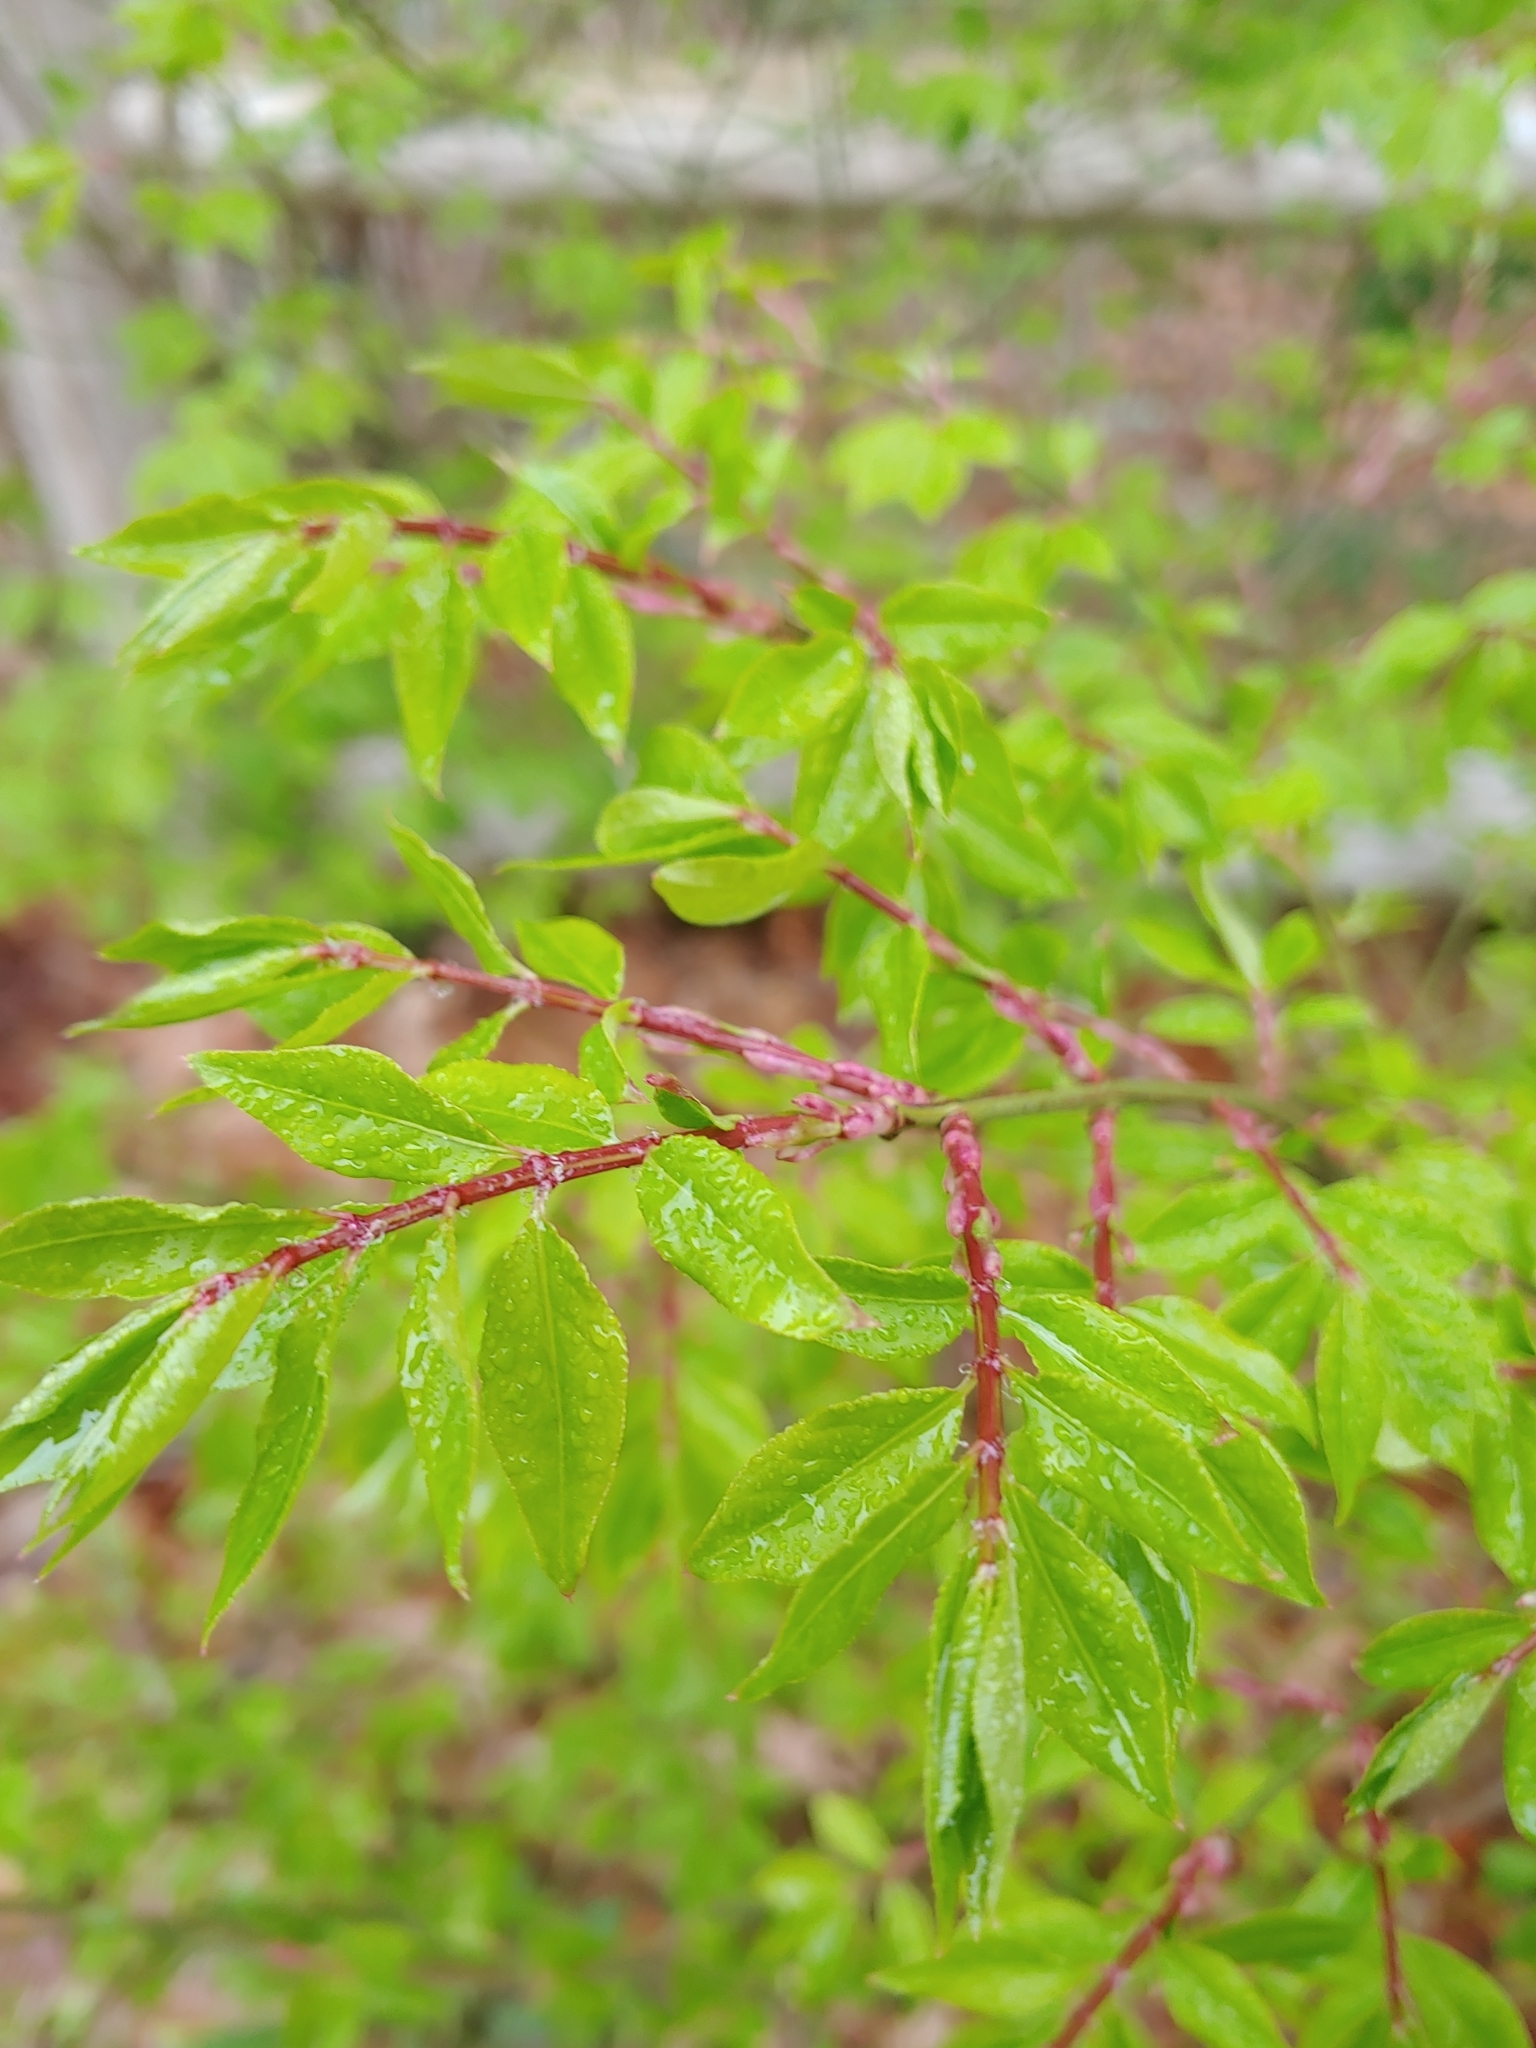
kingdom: Plantae
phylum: Tracheophyta
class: Magnoliopsida
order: Celastrales
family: Celastraceae
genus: Euonymus
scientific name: Euonymus alatus
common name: Winged euonymus
